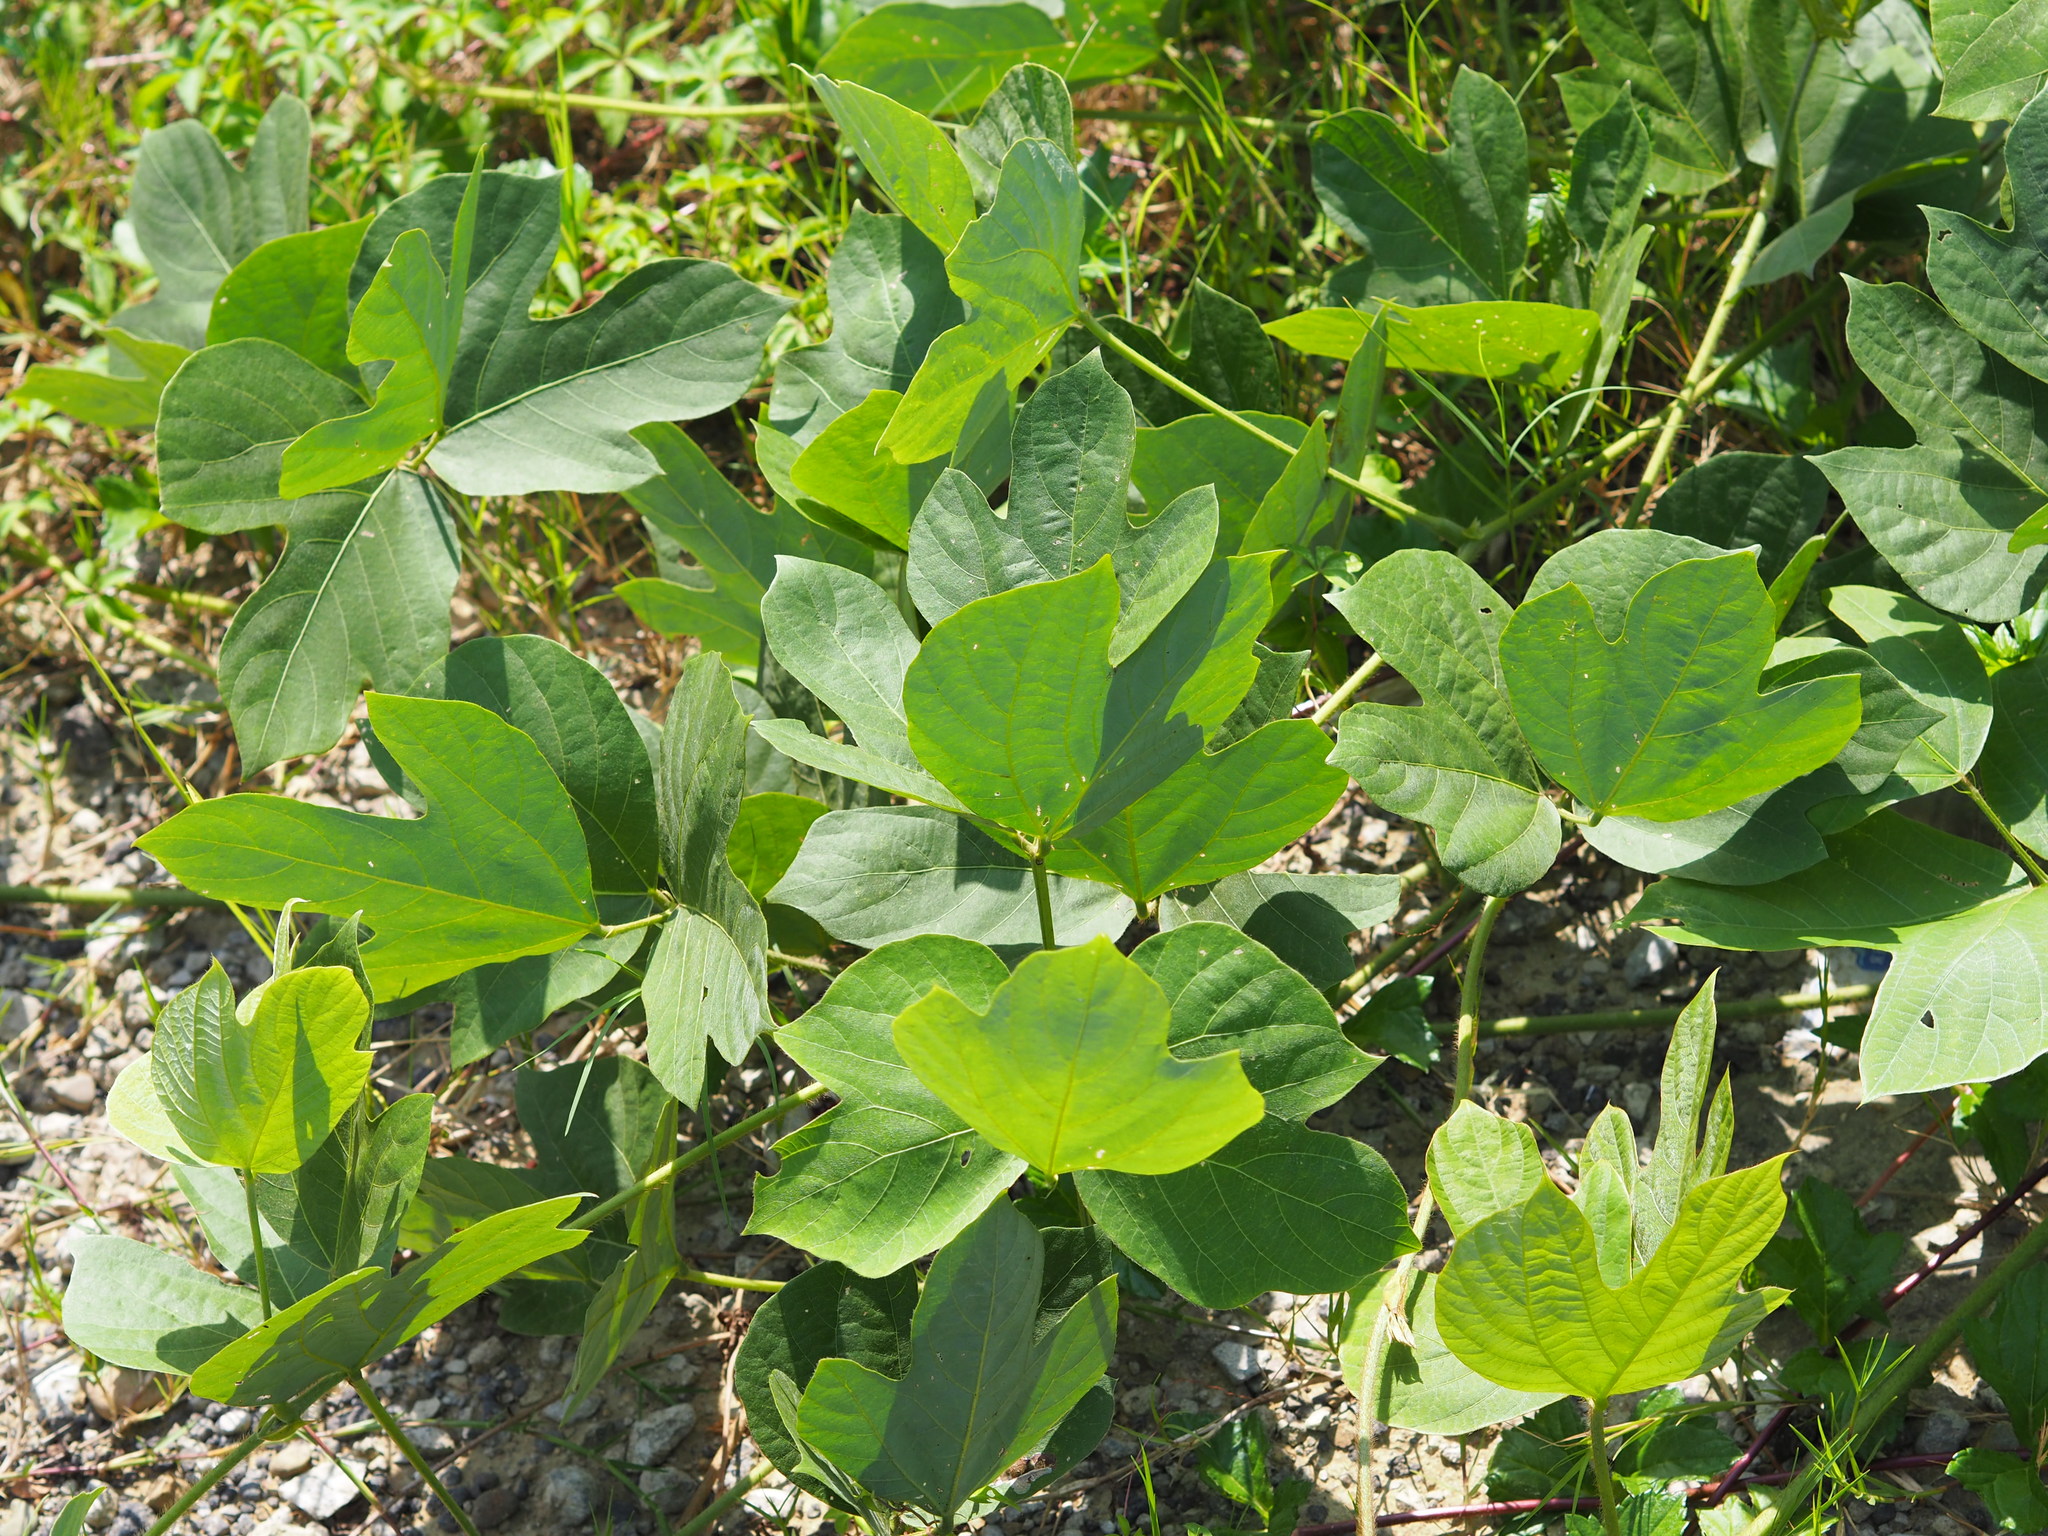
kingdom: Plantae
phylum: Tracheophyta
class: Magnoliopsida
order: Fabales
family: Fabaceae
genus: Pueraria
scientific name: Pueraria montana
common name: Kudzu
